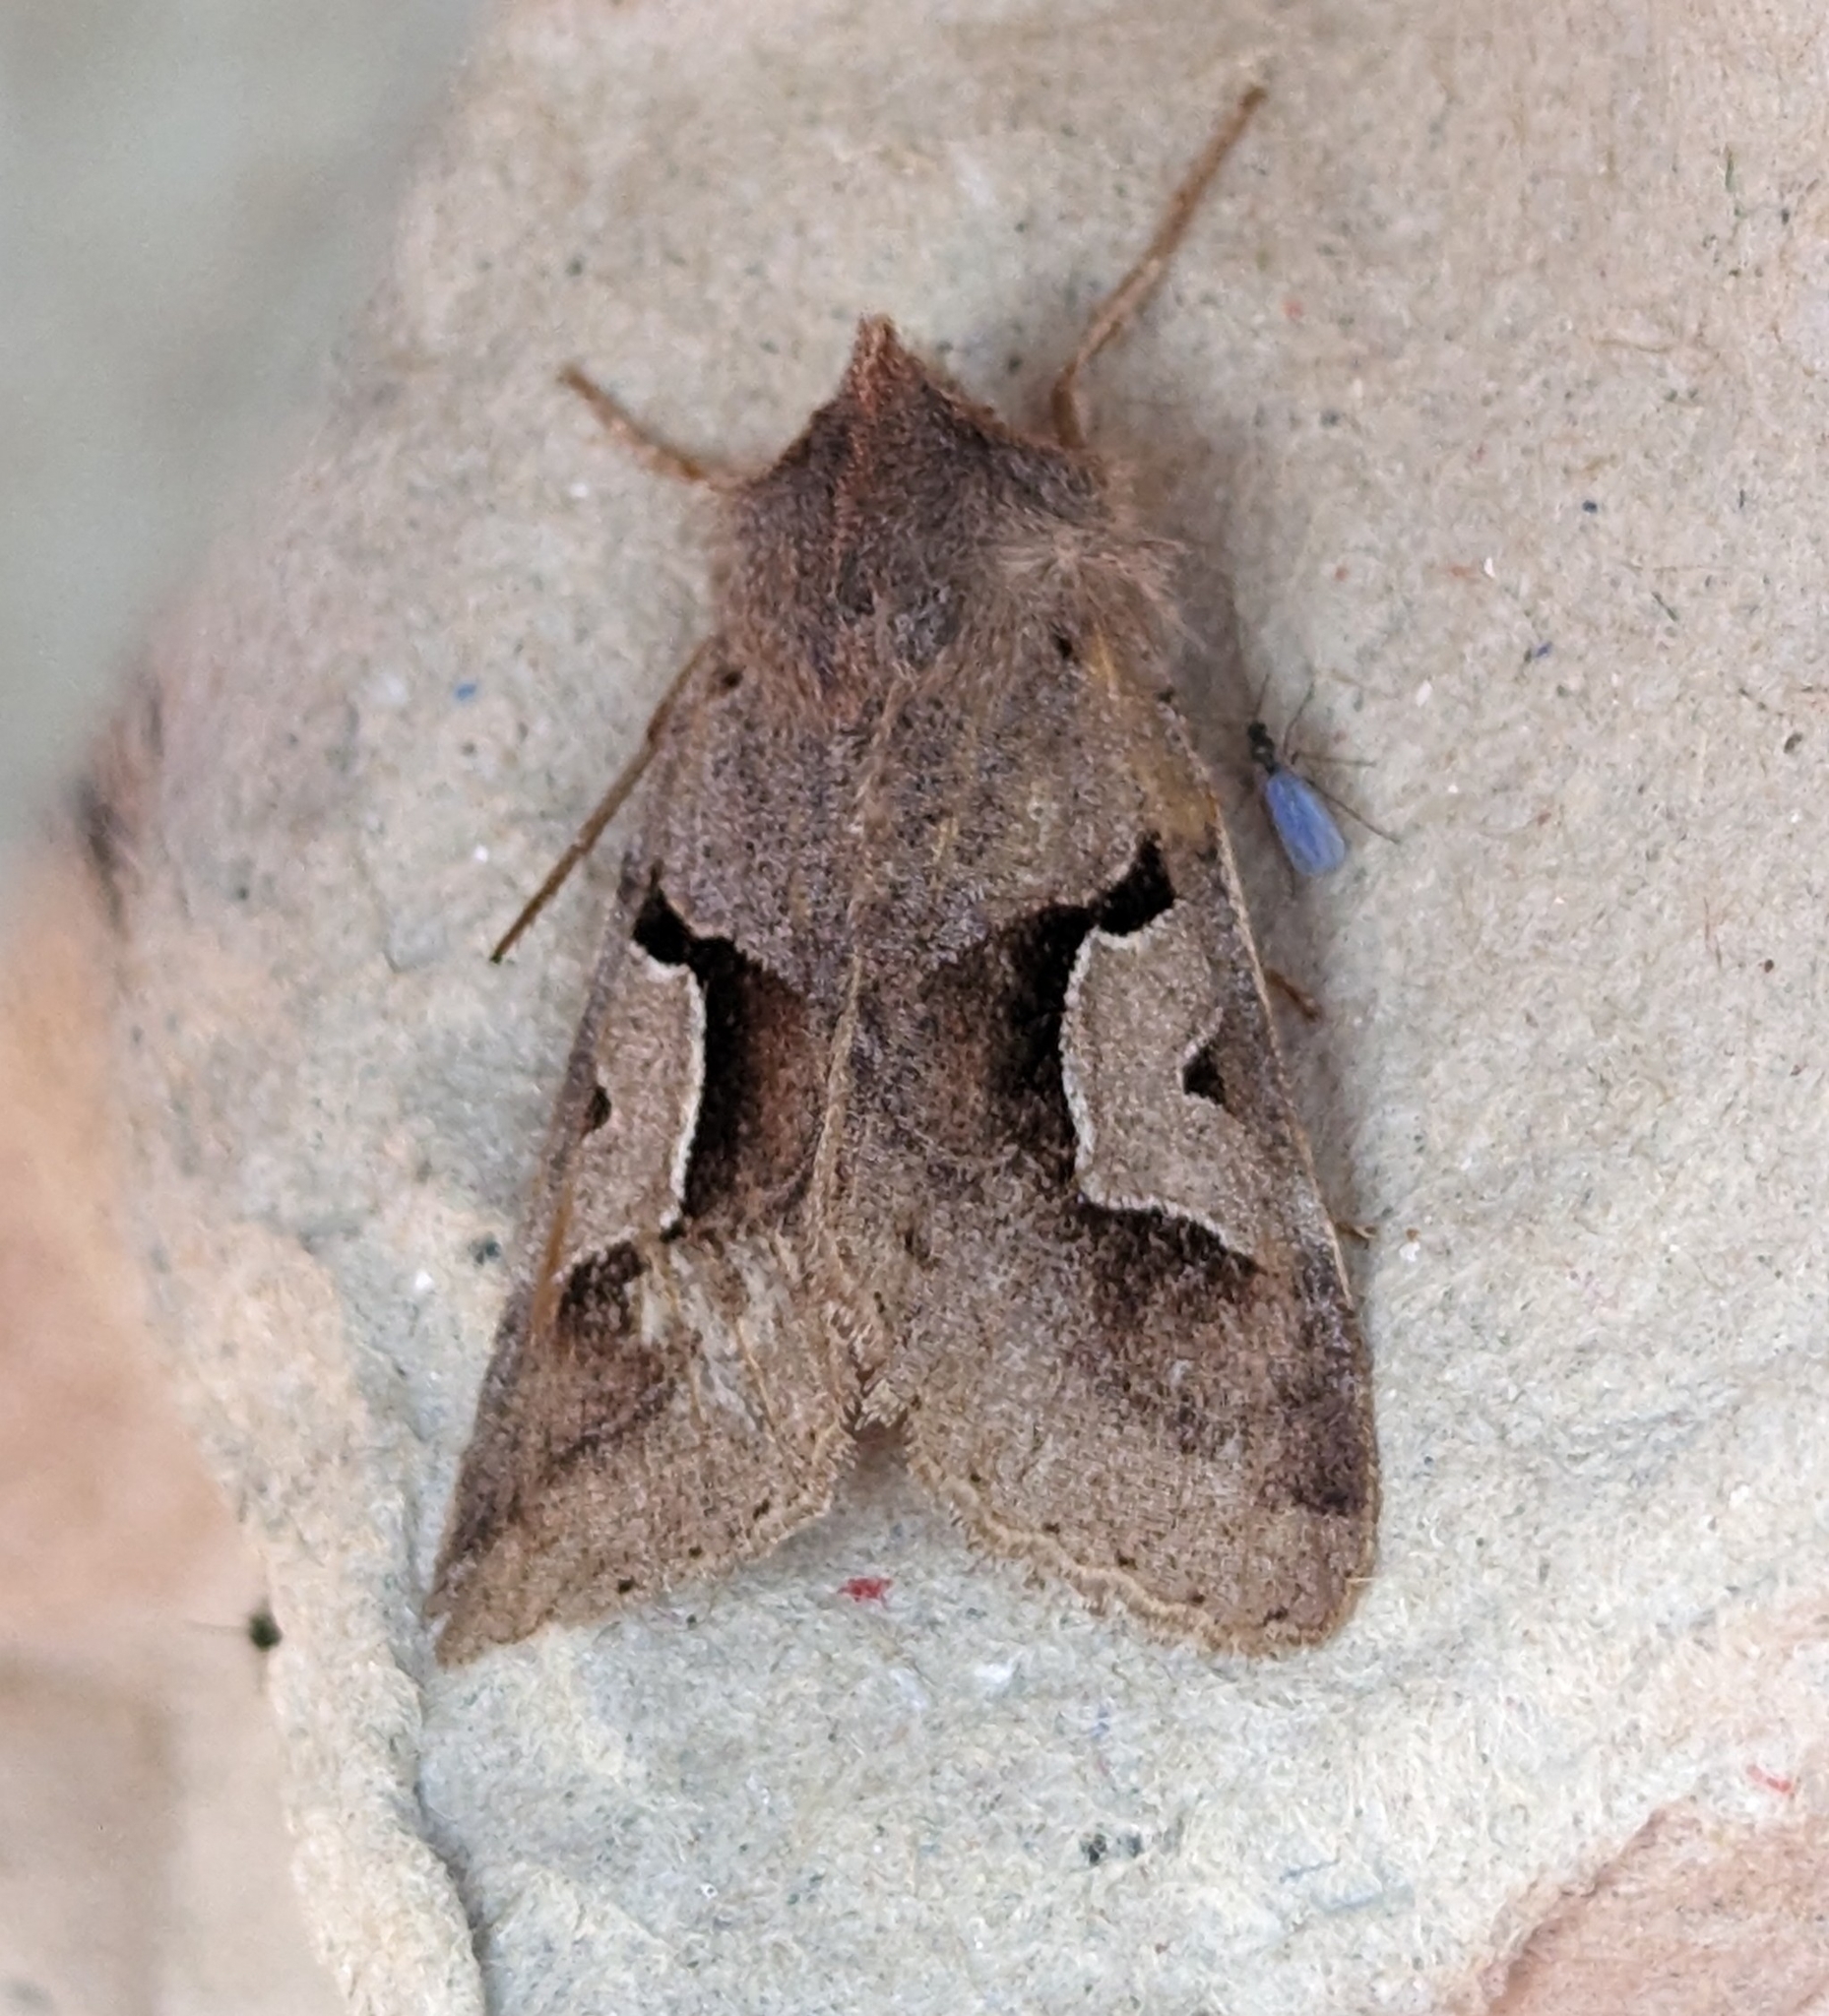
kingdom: Animalia
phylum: Arthropoda
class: Insecta
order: Lepidoptera
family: Noctuidae
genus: Acerra
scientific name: Acerra normalis
